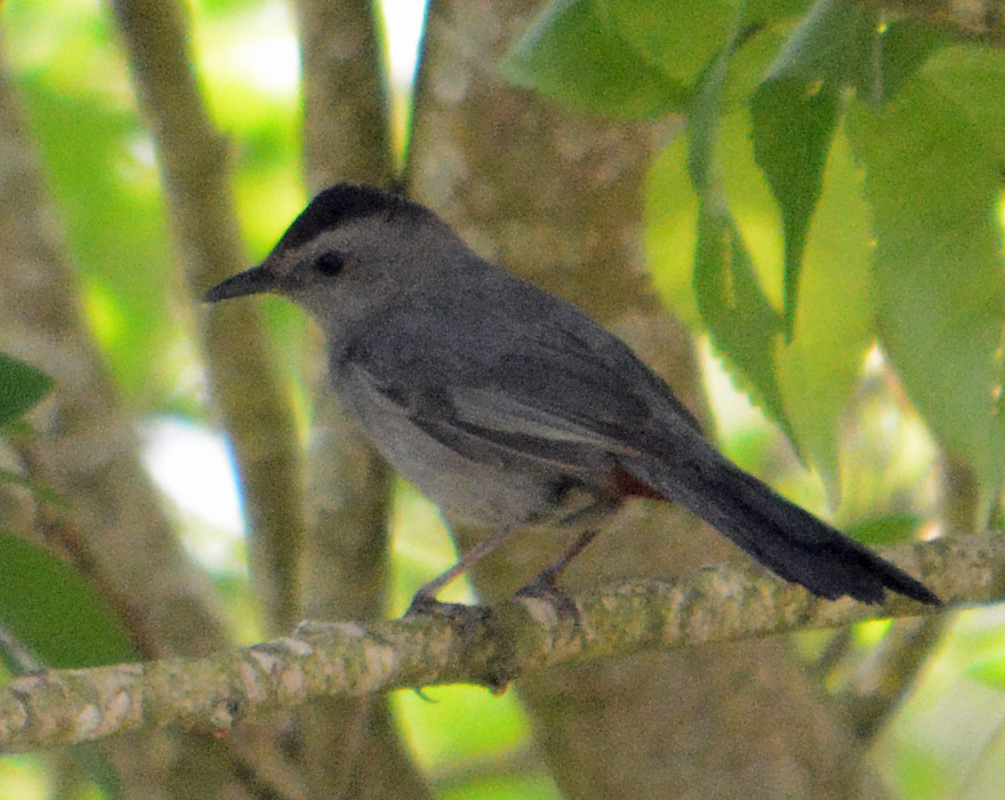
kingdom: Animalia
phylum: Chordata
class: Aves
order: Passeriformes
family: Mimidae
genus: Dumetella
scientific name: Dumetella carolinensis
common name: Gray catbird
